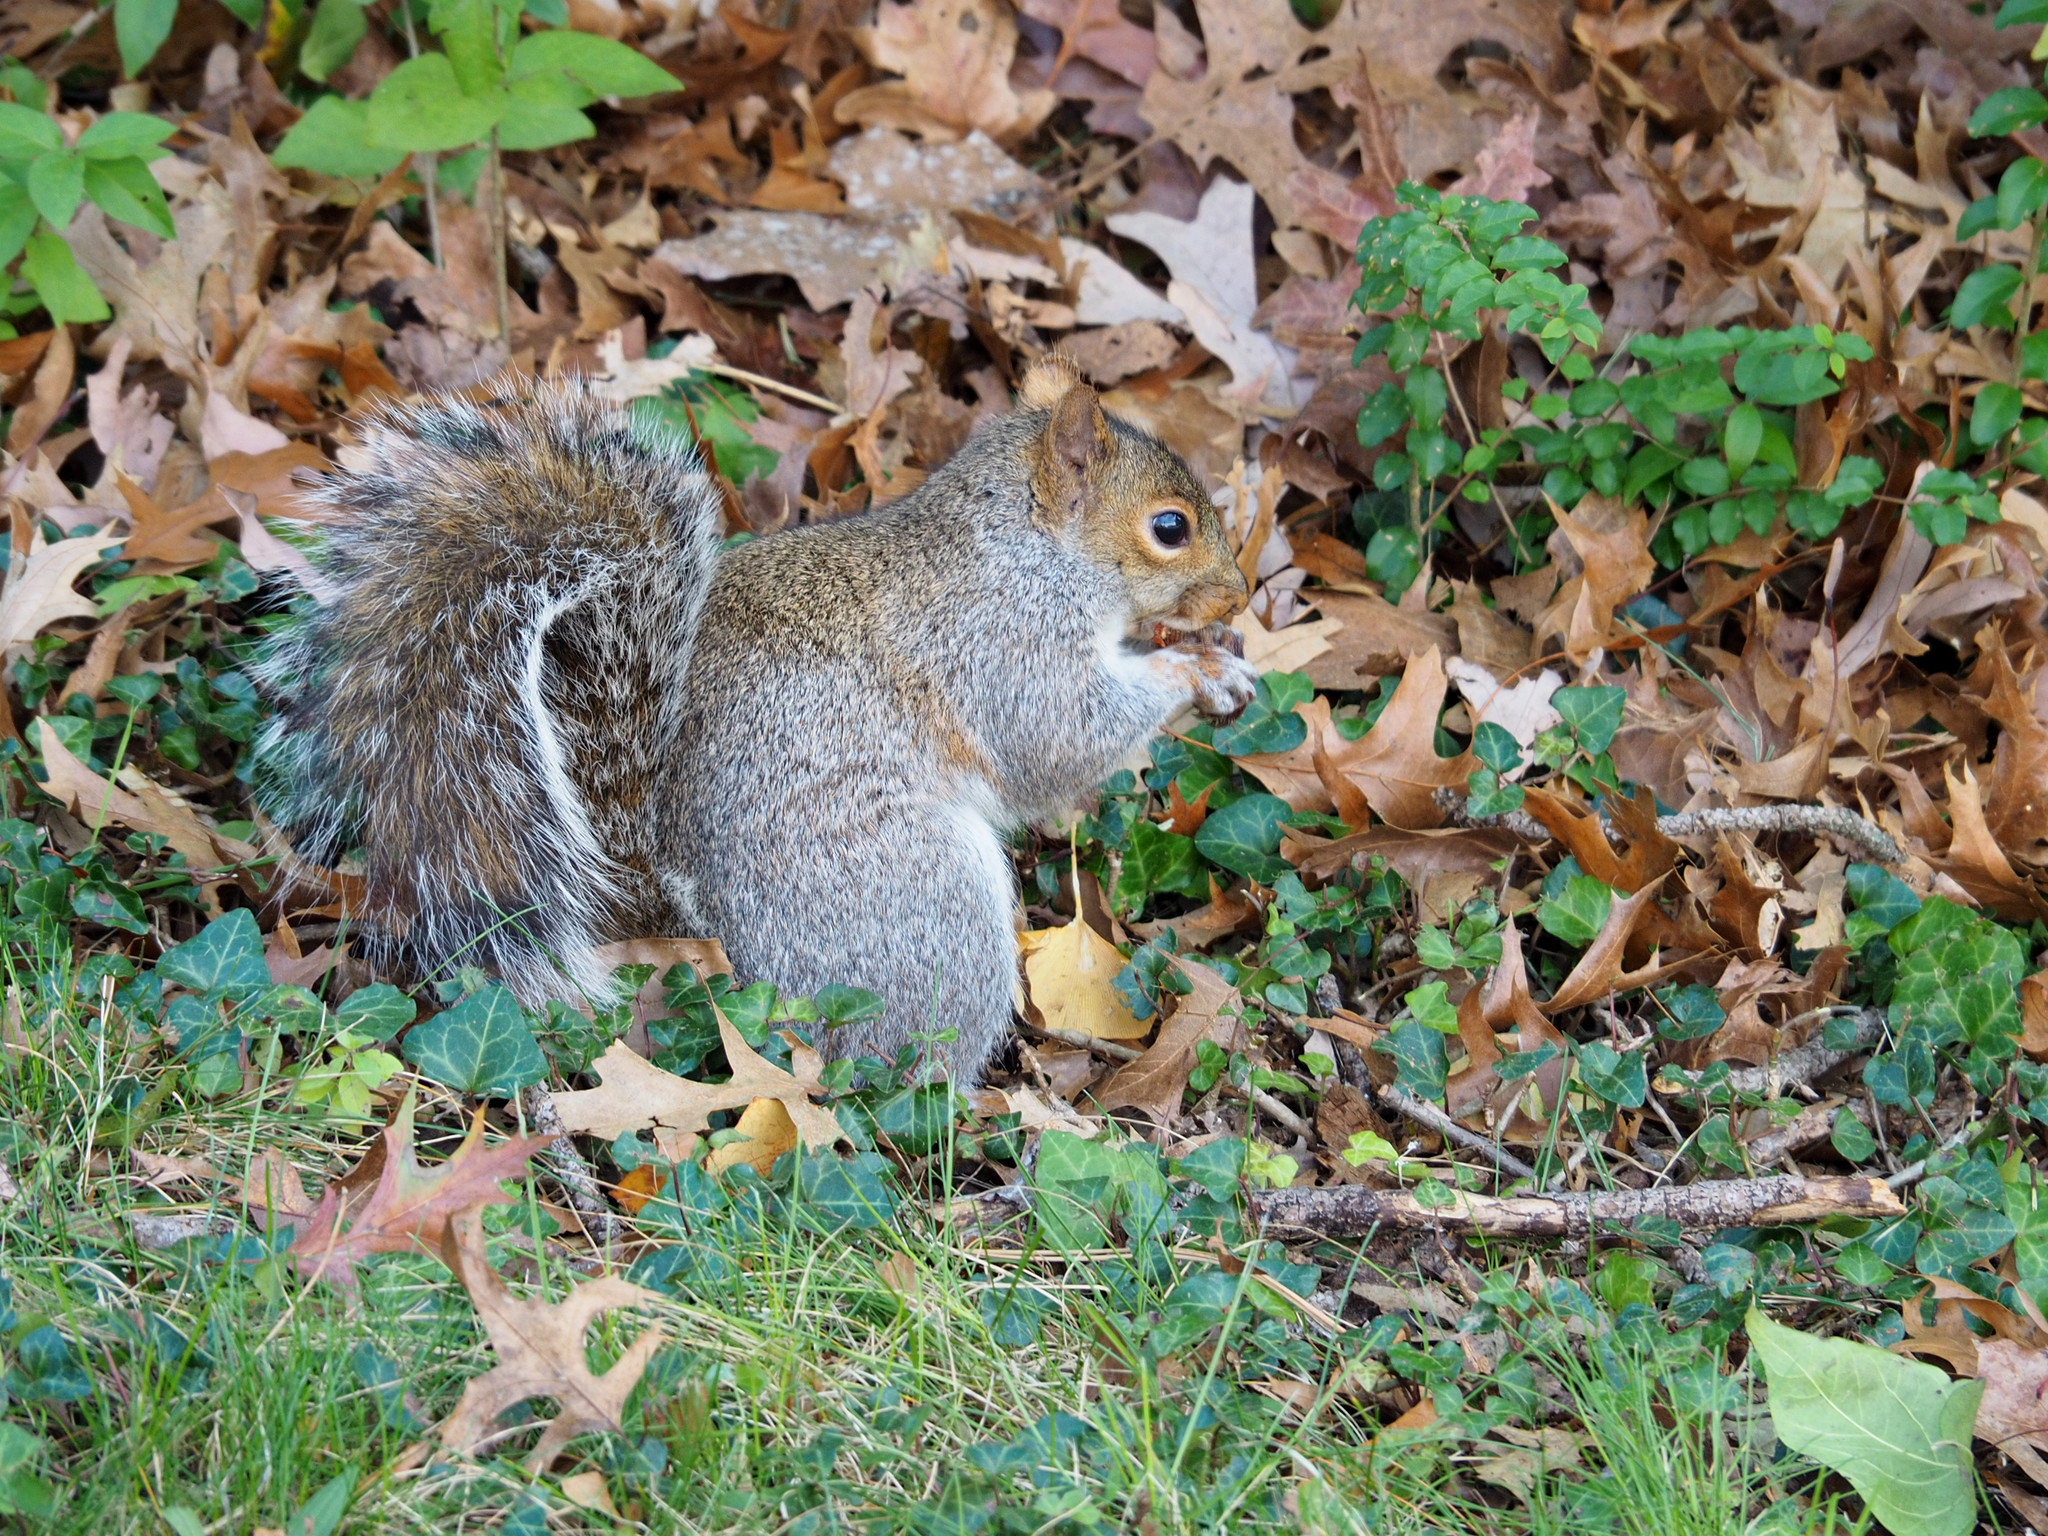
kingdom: Animalia
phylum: Chordata
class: Mammalia
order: Rodentia
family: Sciuridae
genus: Sciurus
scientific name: Sciurus carolinensis
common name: Eastern gray squirrel
